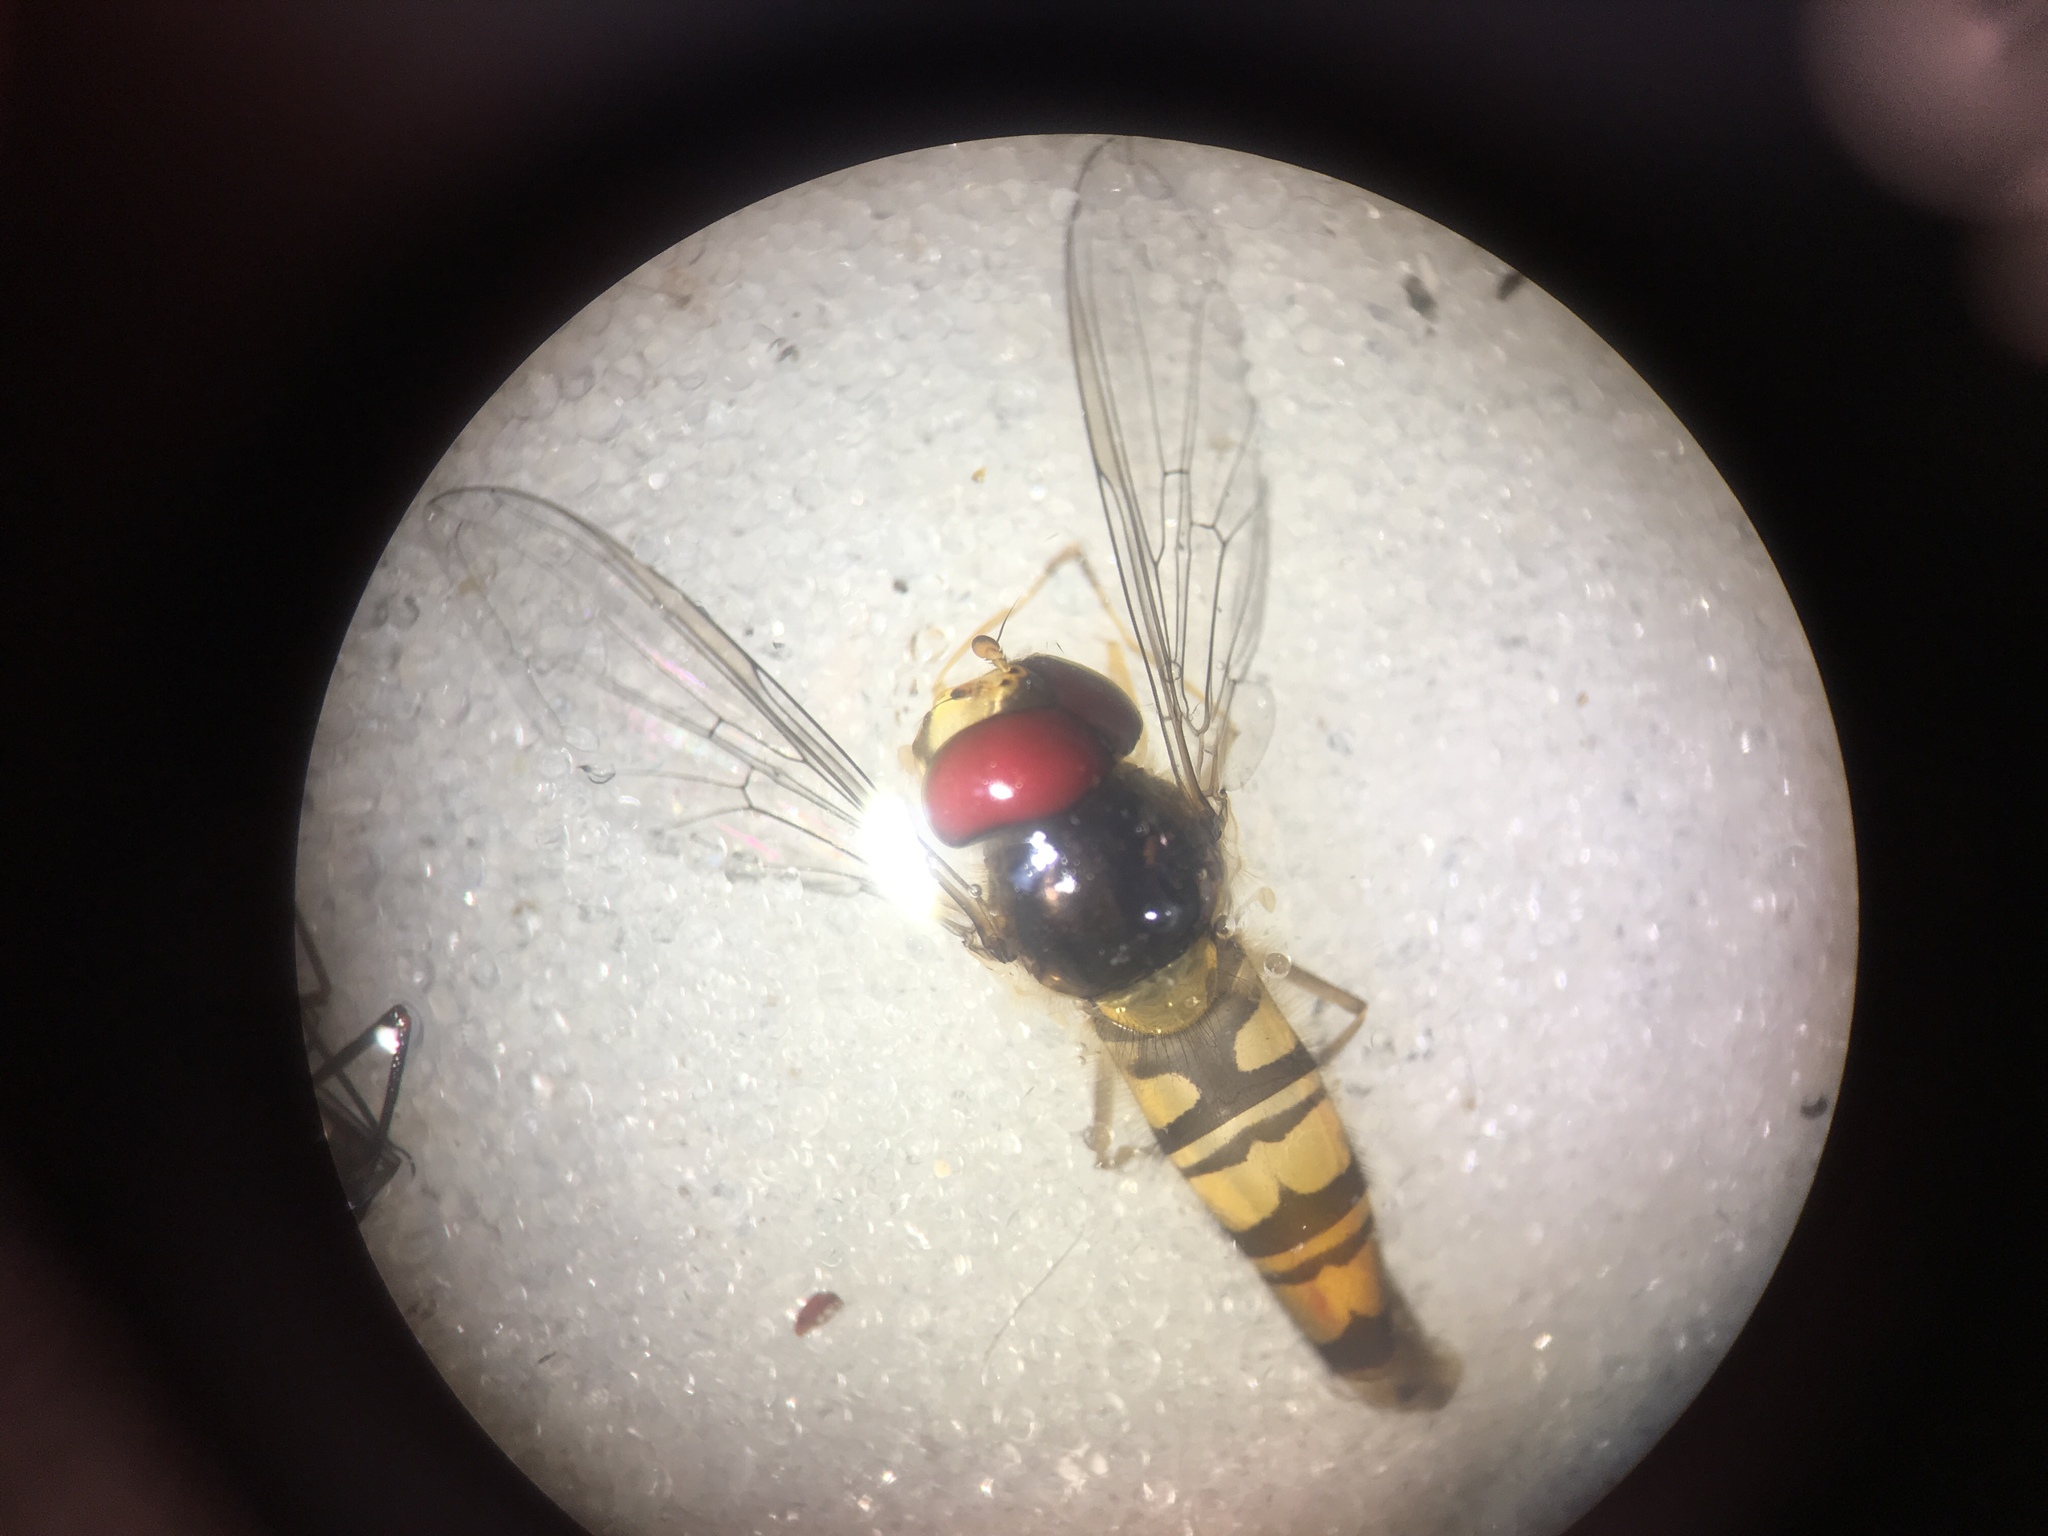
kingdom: Animalia
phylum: Arthropoda
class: Insecta
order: Diptera
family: Syrphidae
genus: Episyrphus
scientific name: Episyrphus balteatus
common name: Marmalade hoverfly
